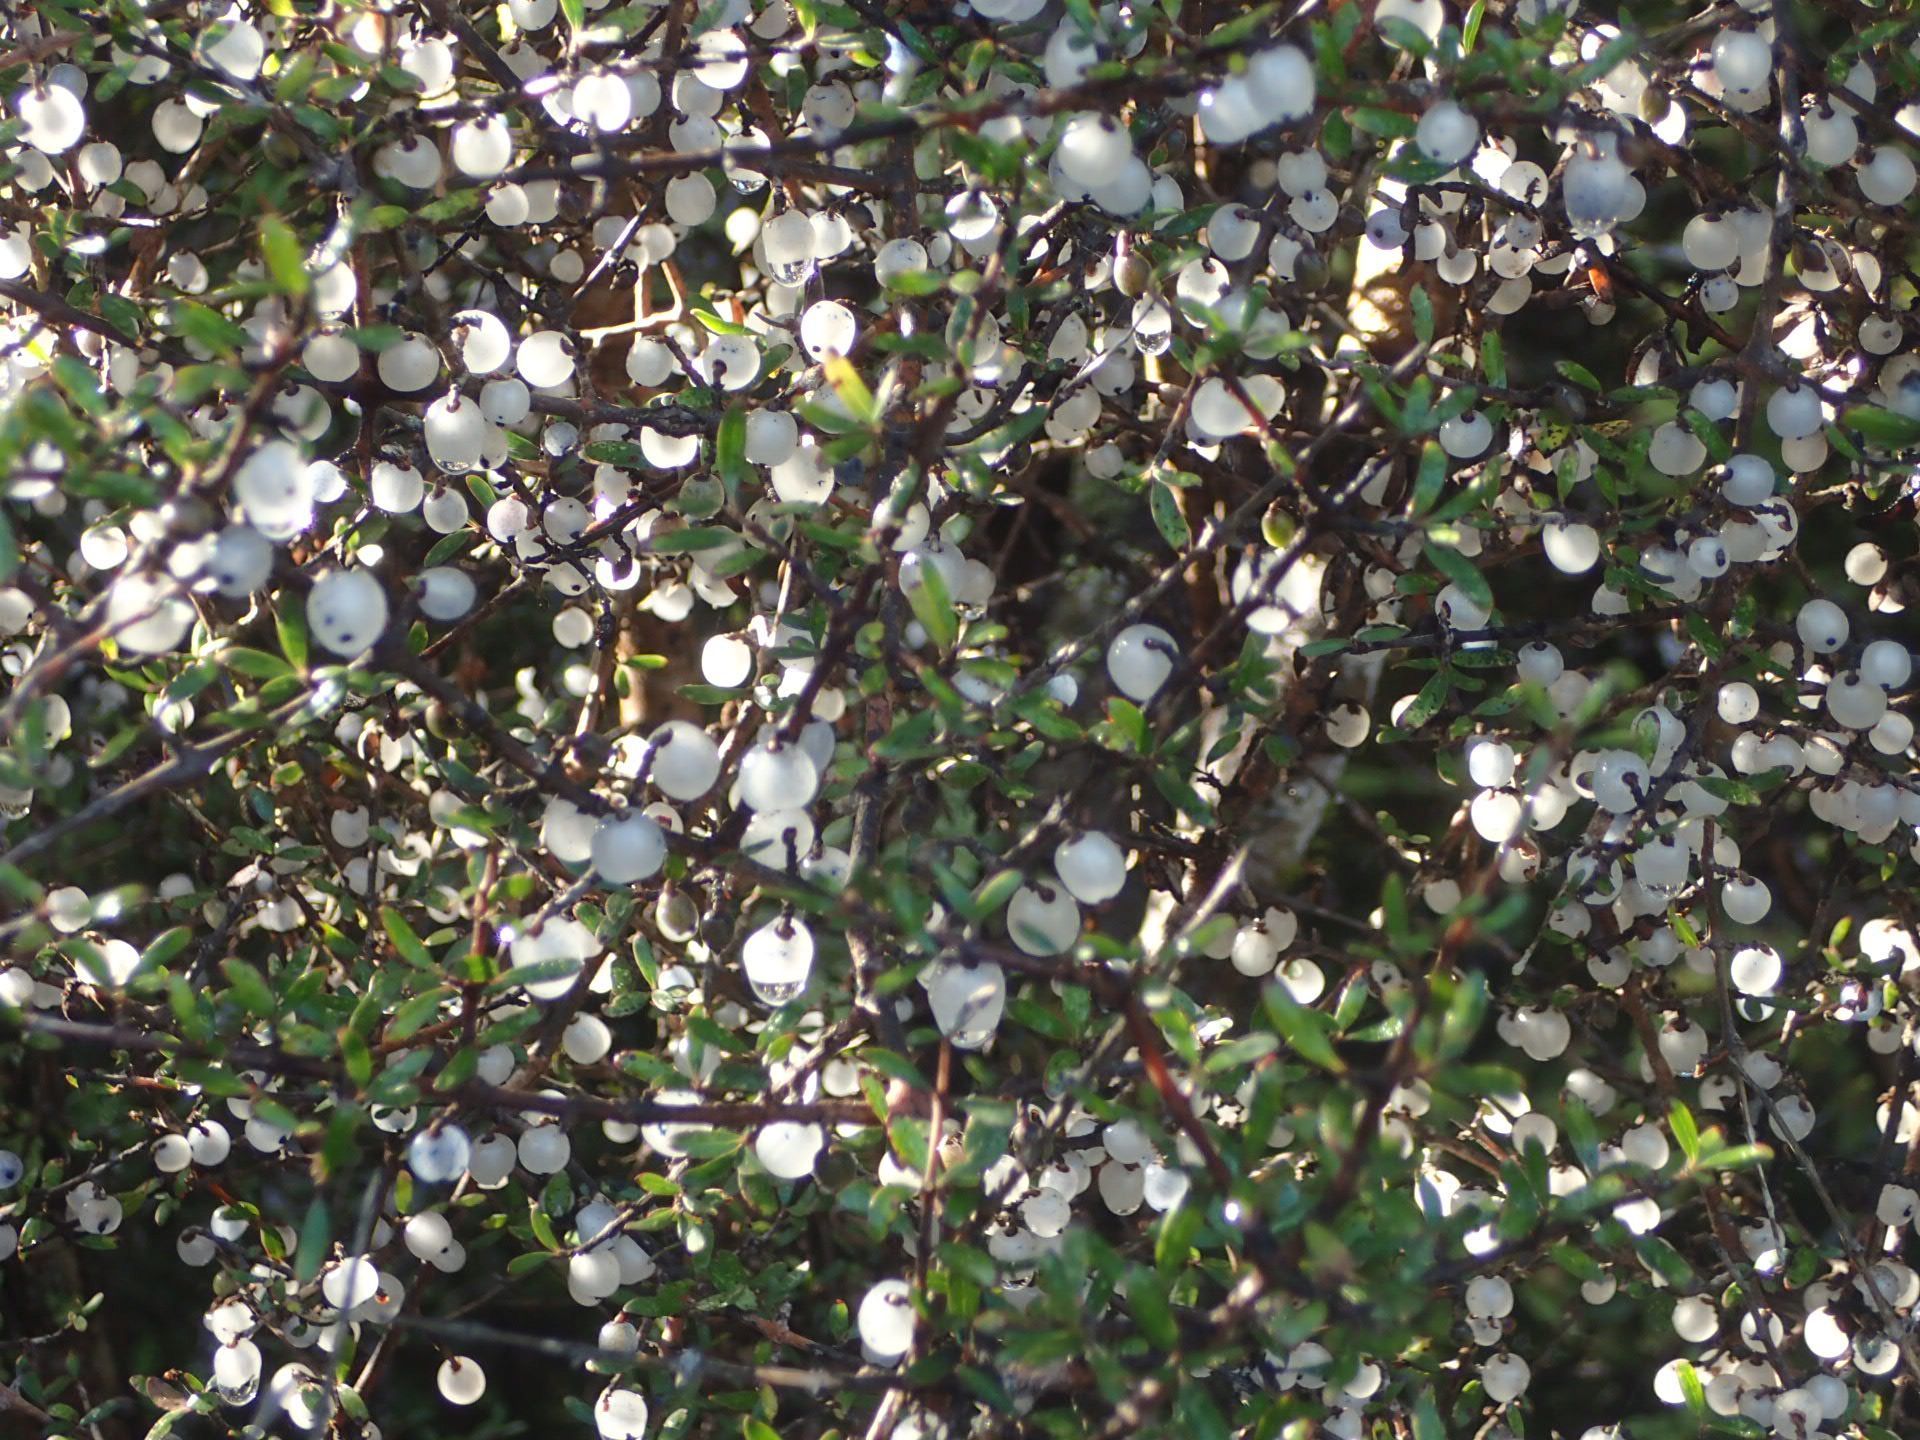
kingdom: Plantae
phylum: Tracheophyta
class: Magnoliopsida
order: Gentianales
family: Rubiaceae
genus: Coprosma
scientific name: Coprosma propinqua
